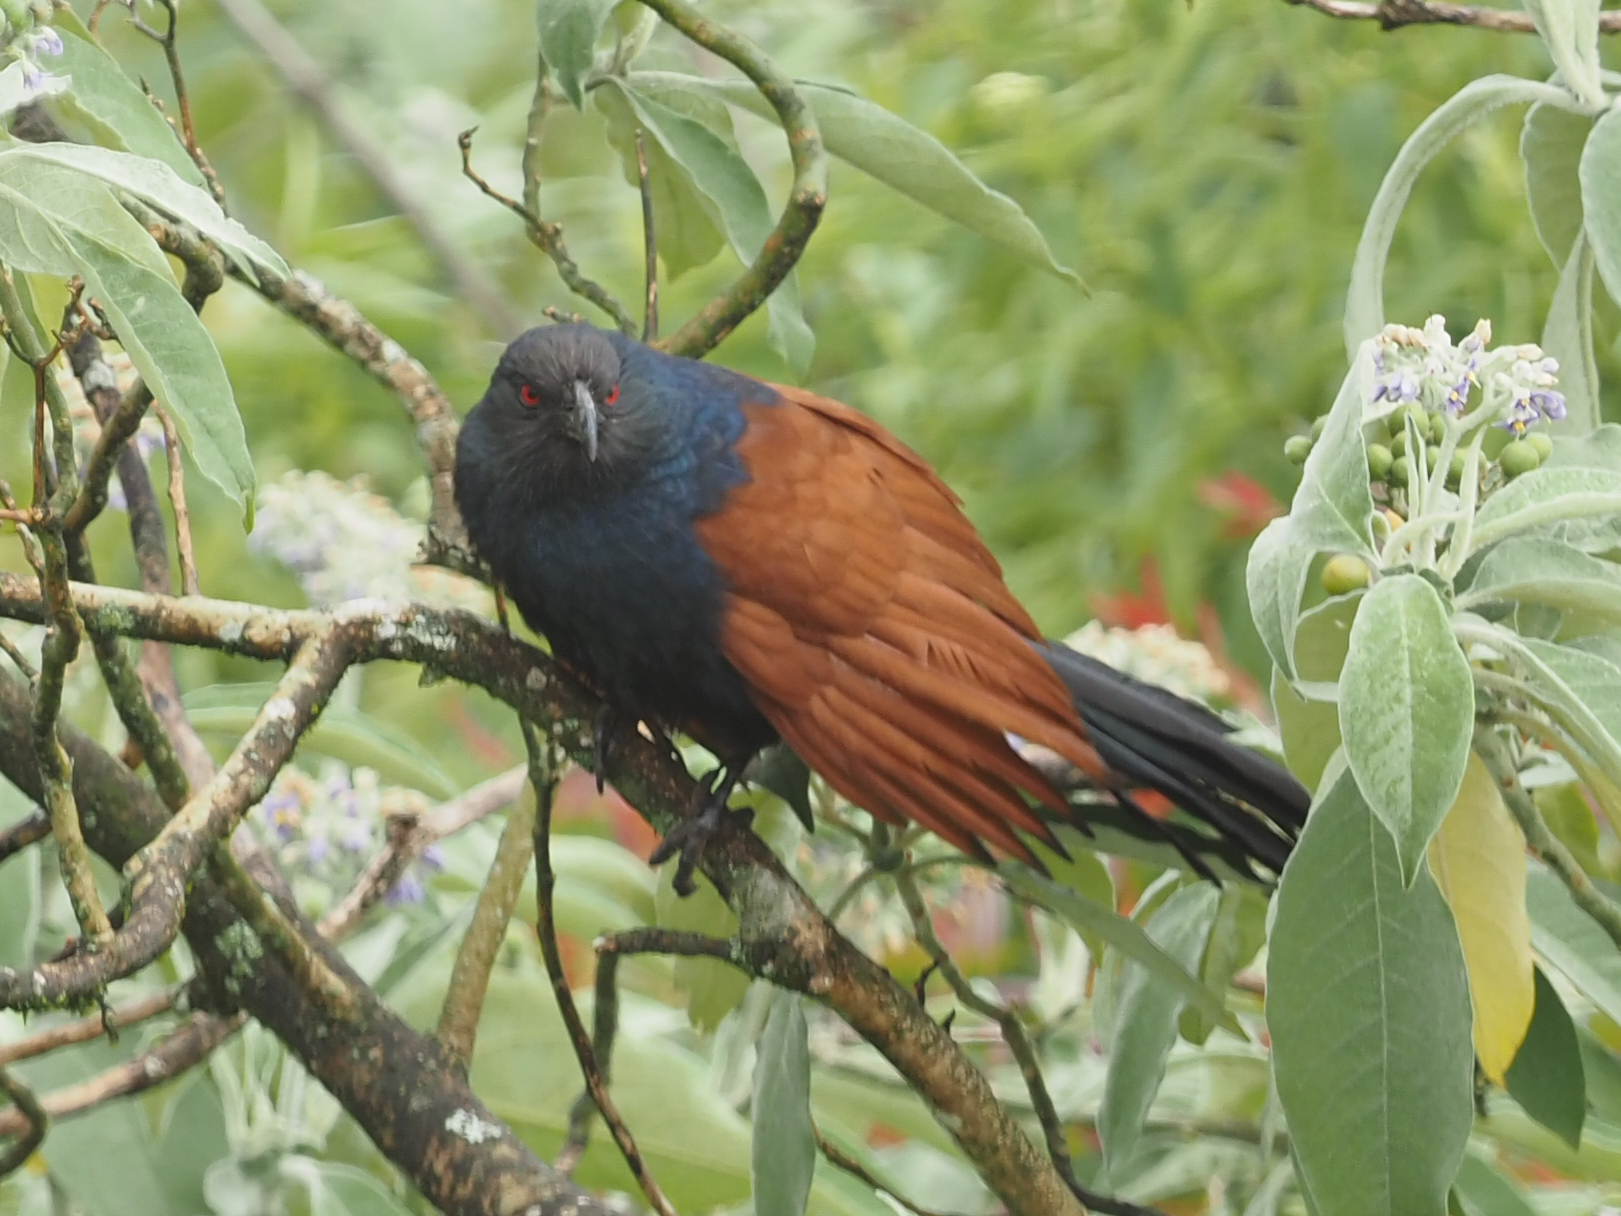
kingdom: Animalia
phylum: Chordata
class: Aves
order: Cuculiformes
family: Cuculidae
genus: Centropus
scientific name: Centropus sinensis
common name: Greater coucal
